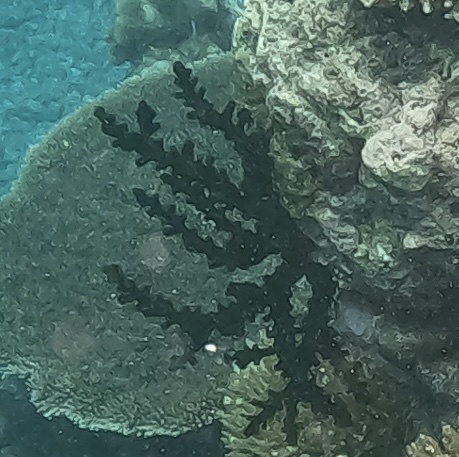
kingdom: Animalia
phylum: Cnidaria
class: Anthozoa
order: Scleractinia
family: Dendrophylliidae
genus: Tubastraea
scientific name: Tubastraea micranthus
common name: Black sun coral
